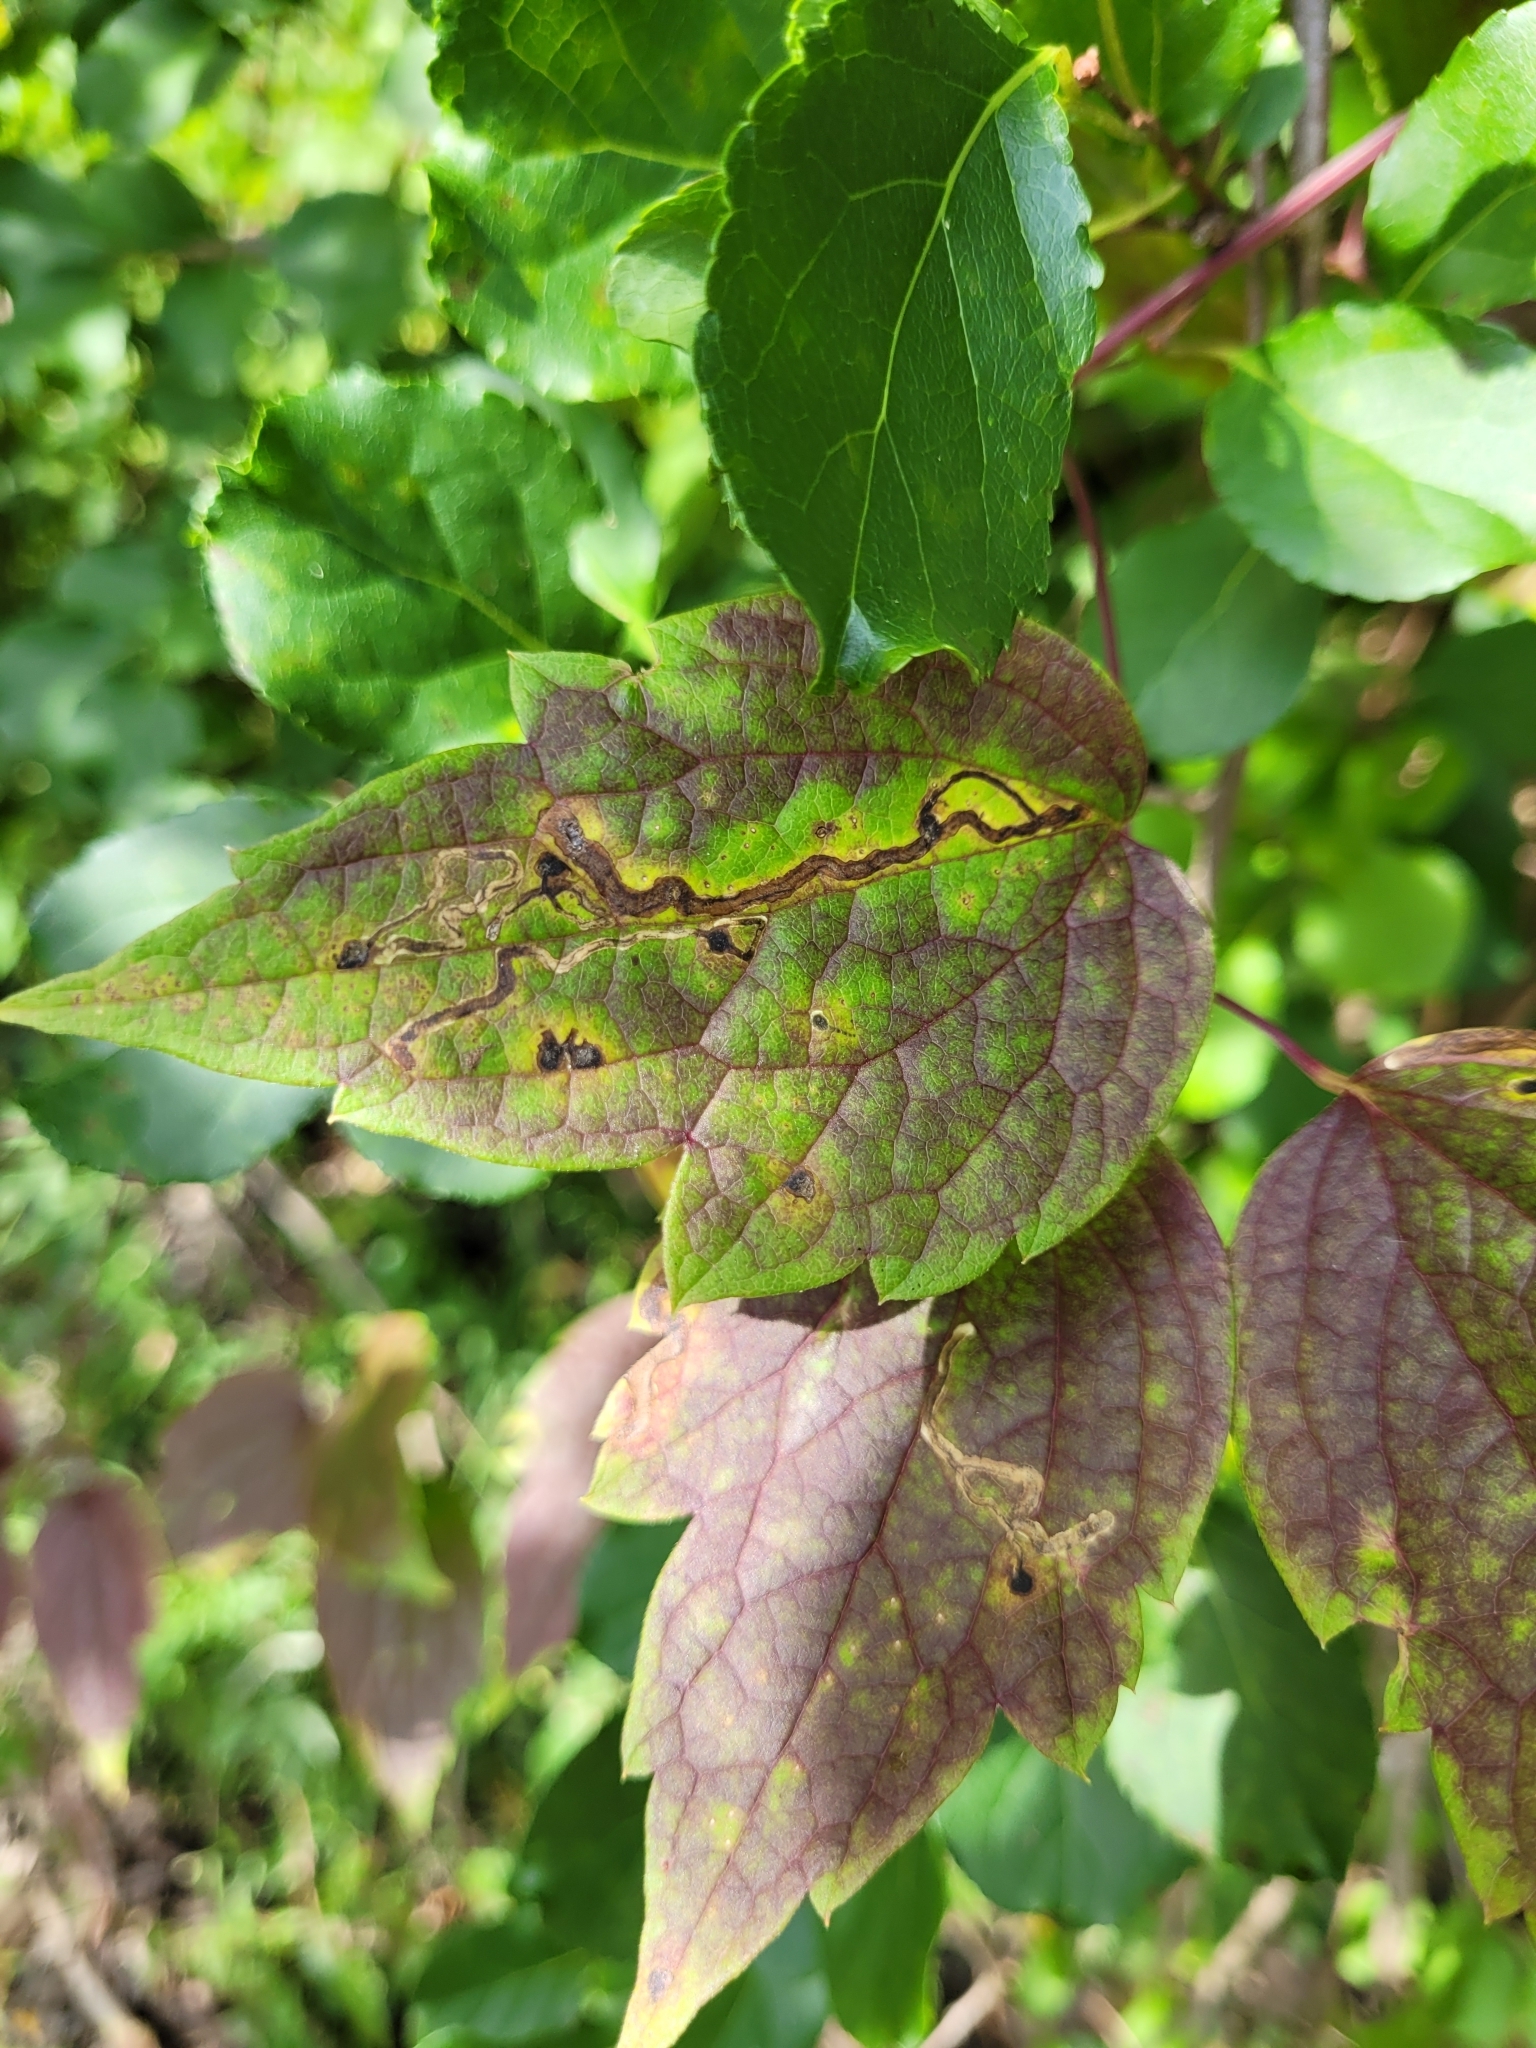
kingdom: Animalia
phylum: Arthropoda
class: Insecta
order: Diptera
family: Agromyzidae
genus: Phytomyza
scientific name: Phytomyza loewii
